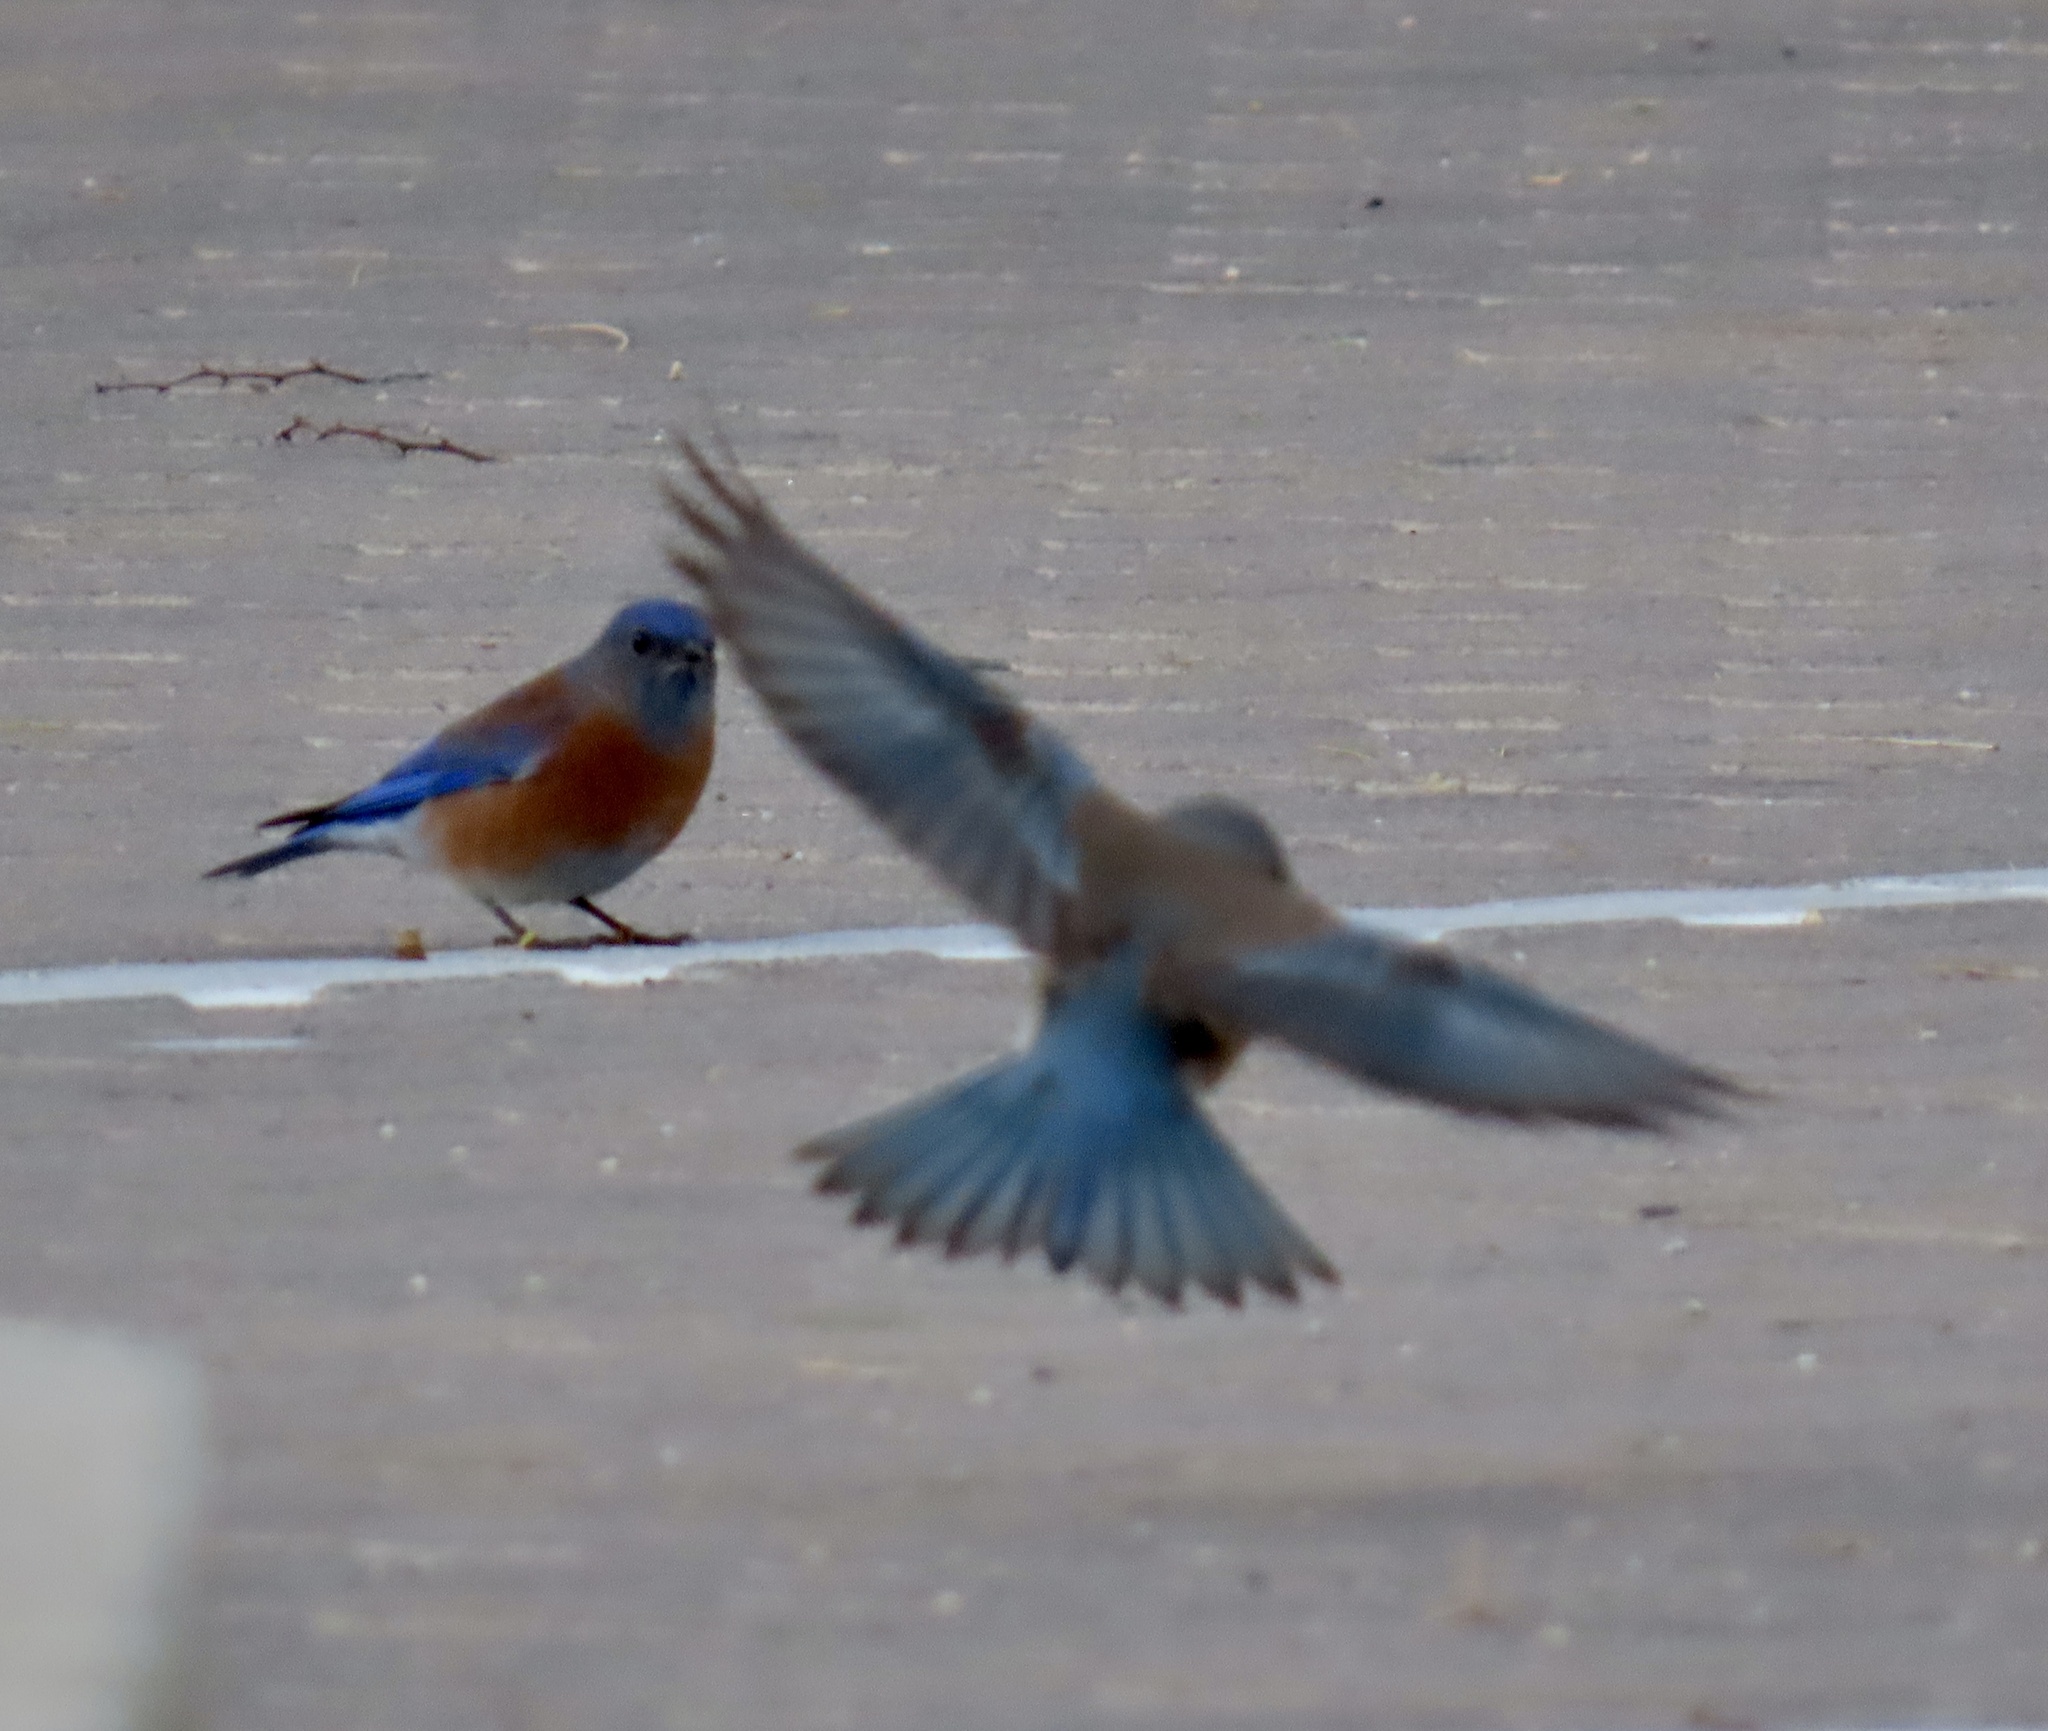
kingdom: Animalia
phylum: Chordata
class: Aves
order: Passeriformes
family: Turdidae
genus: Sialia
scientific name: Sialia mexicana
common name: Western bluebird
